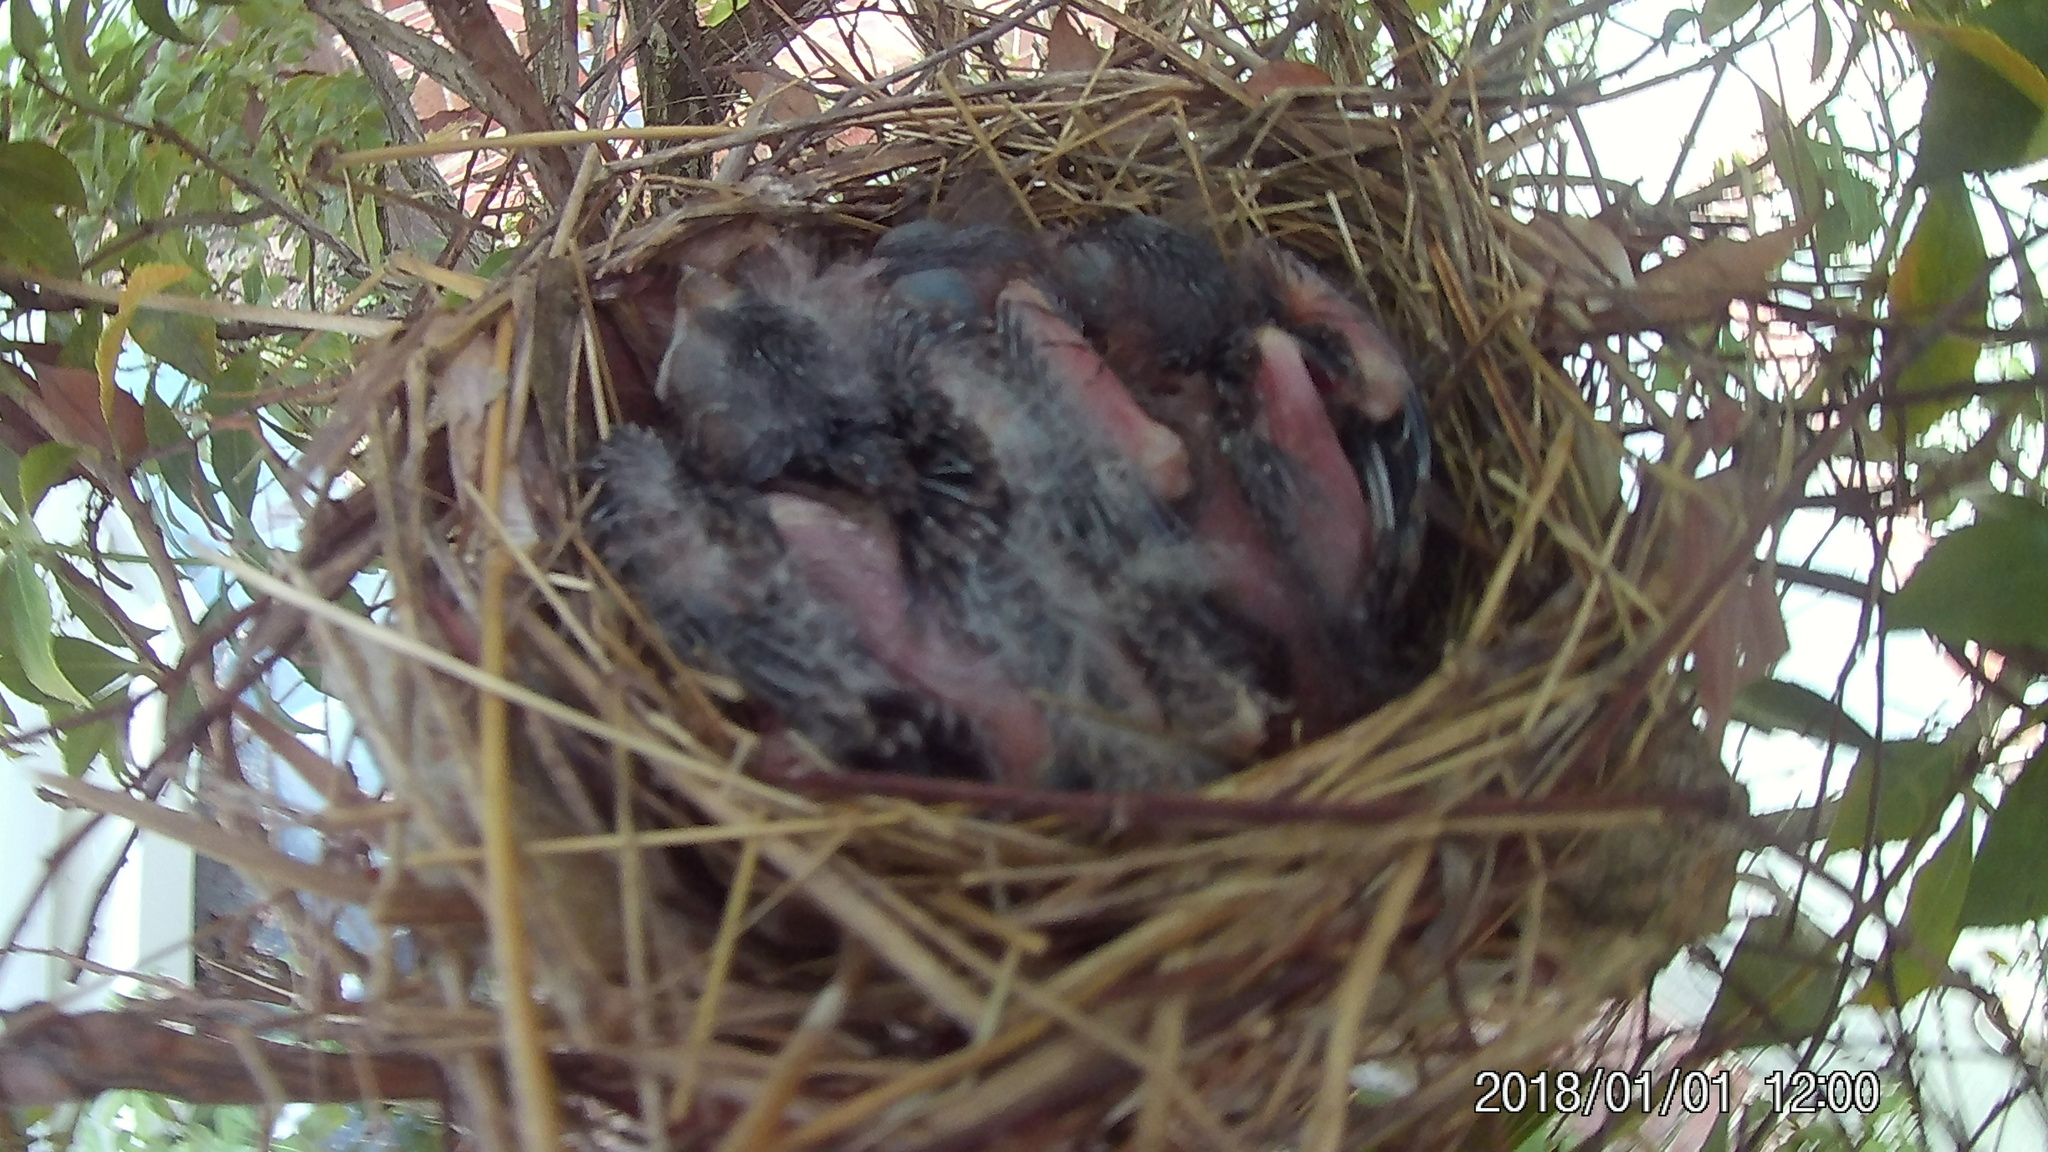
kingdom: Animalia
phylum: Chordata
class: Aves
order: Passeriformes
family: Cardinalidae
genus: Cardinalis
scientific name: Cardinalis cardinalis
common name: Northern cardinal
